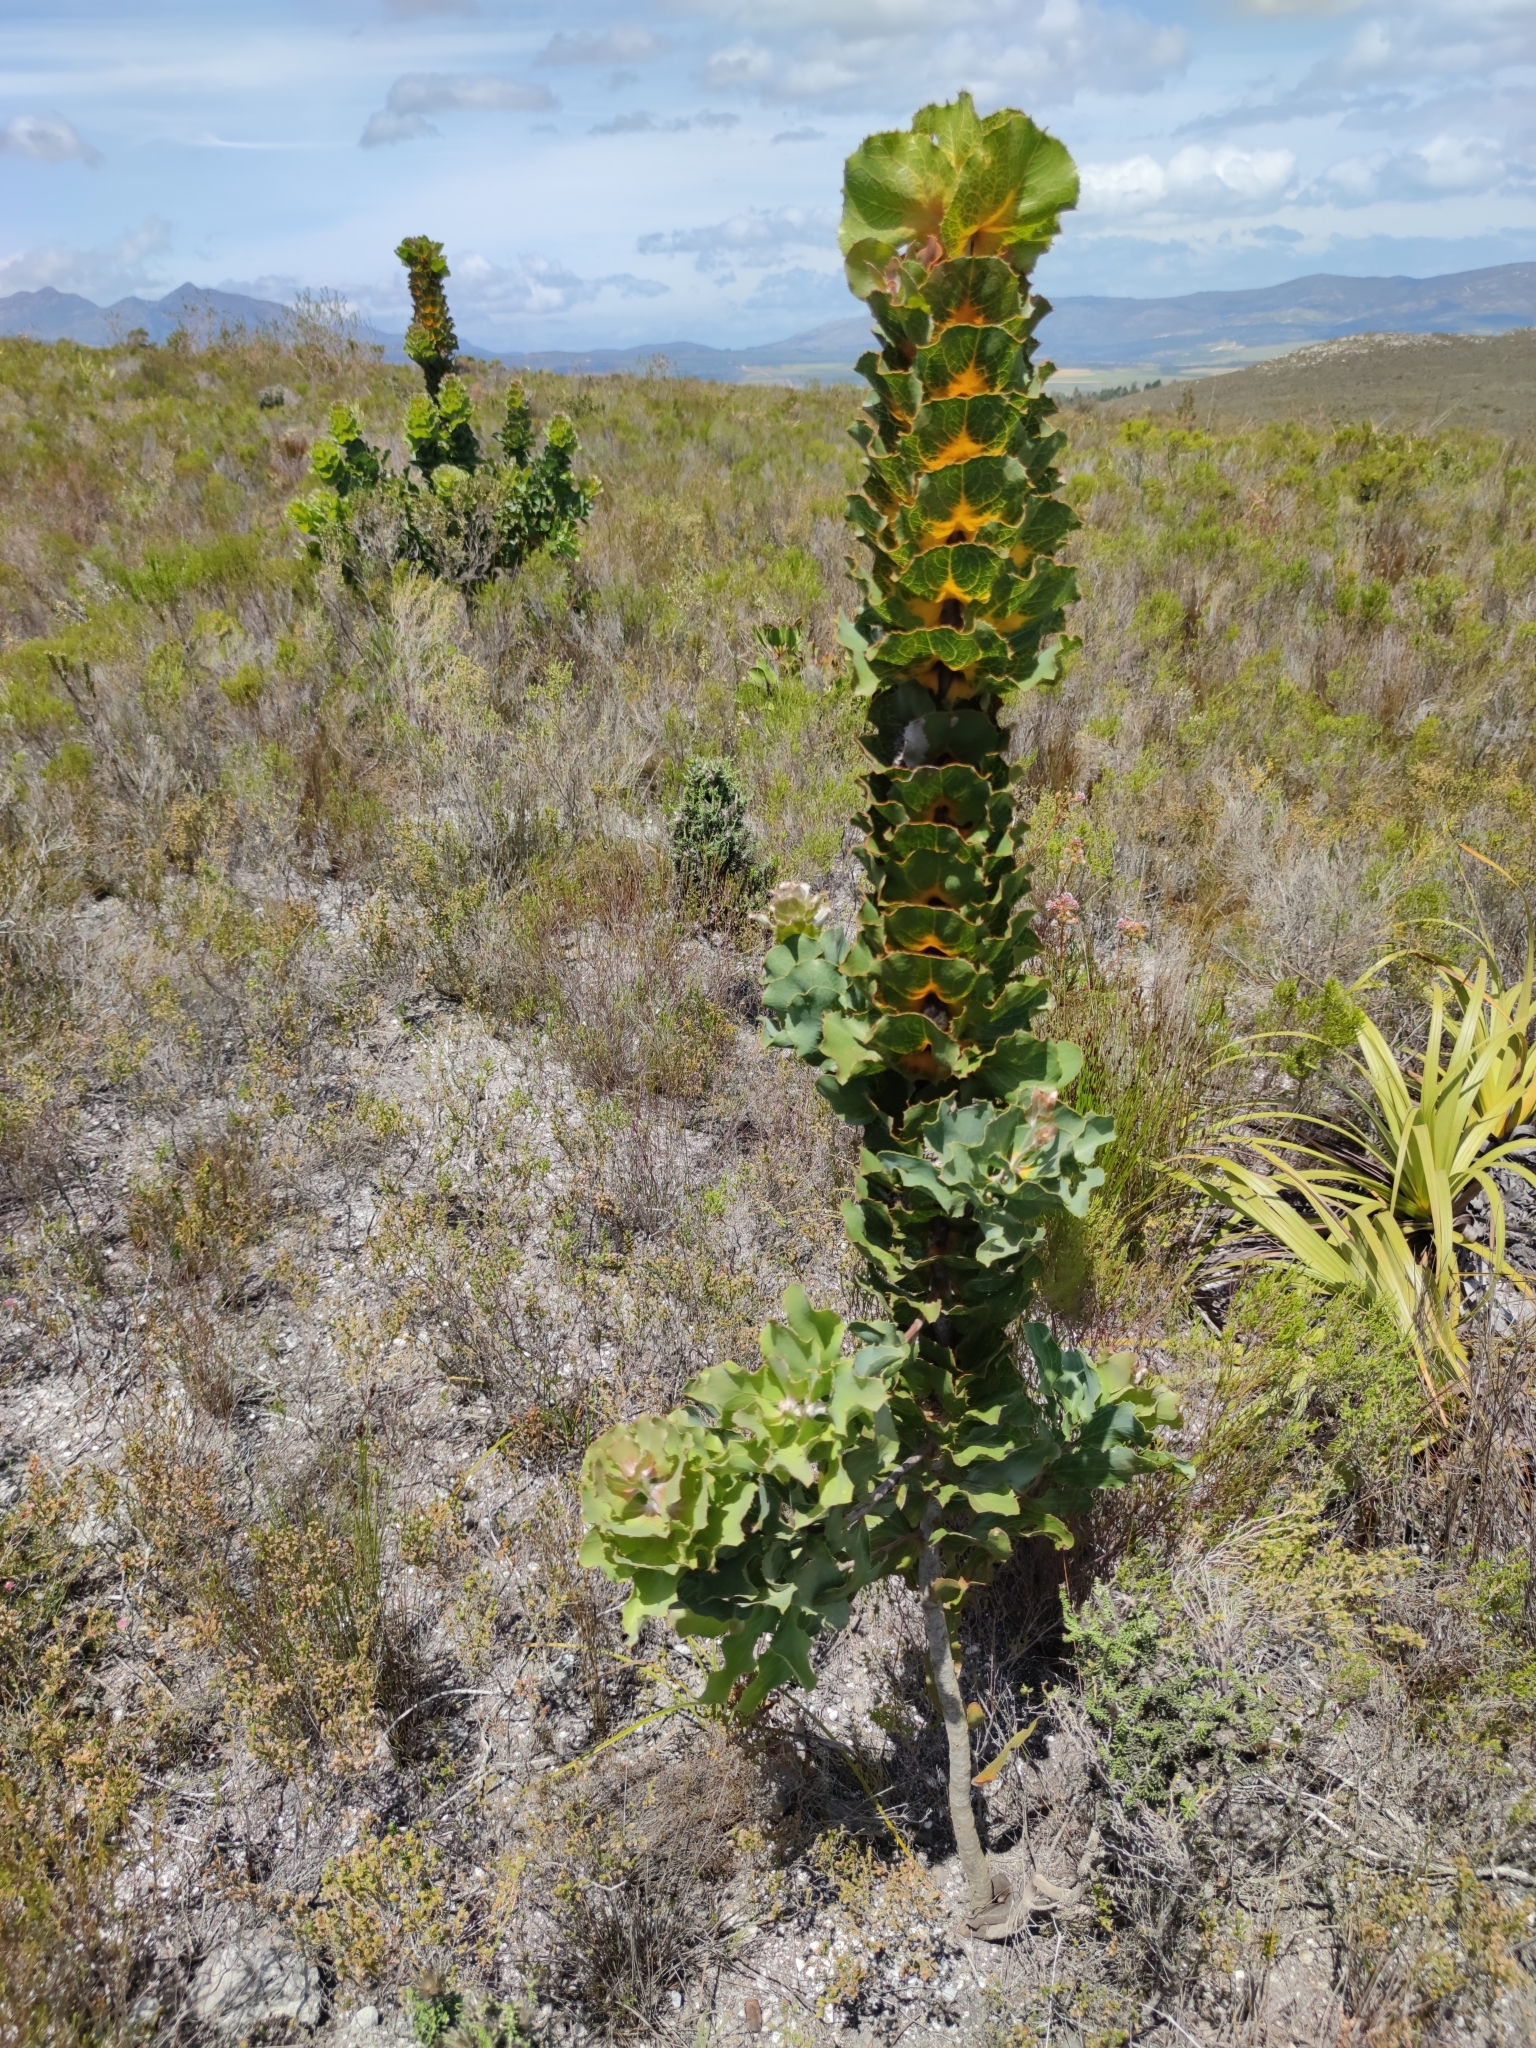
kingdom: Plantae
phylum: Tracheophyta
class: Magnoliopsida
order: Proteales
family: Proteaceae
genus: Hakea
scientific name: Hakea victoria
